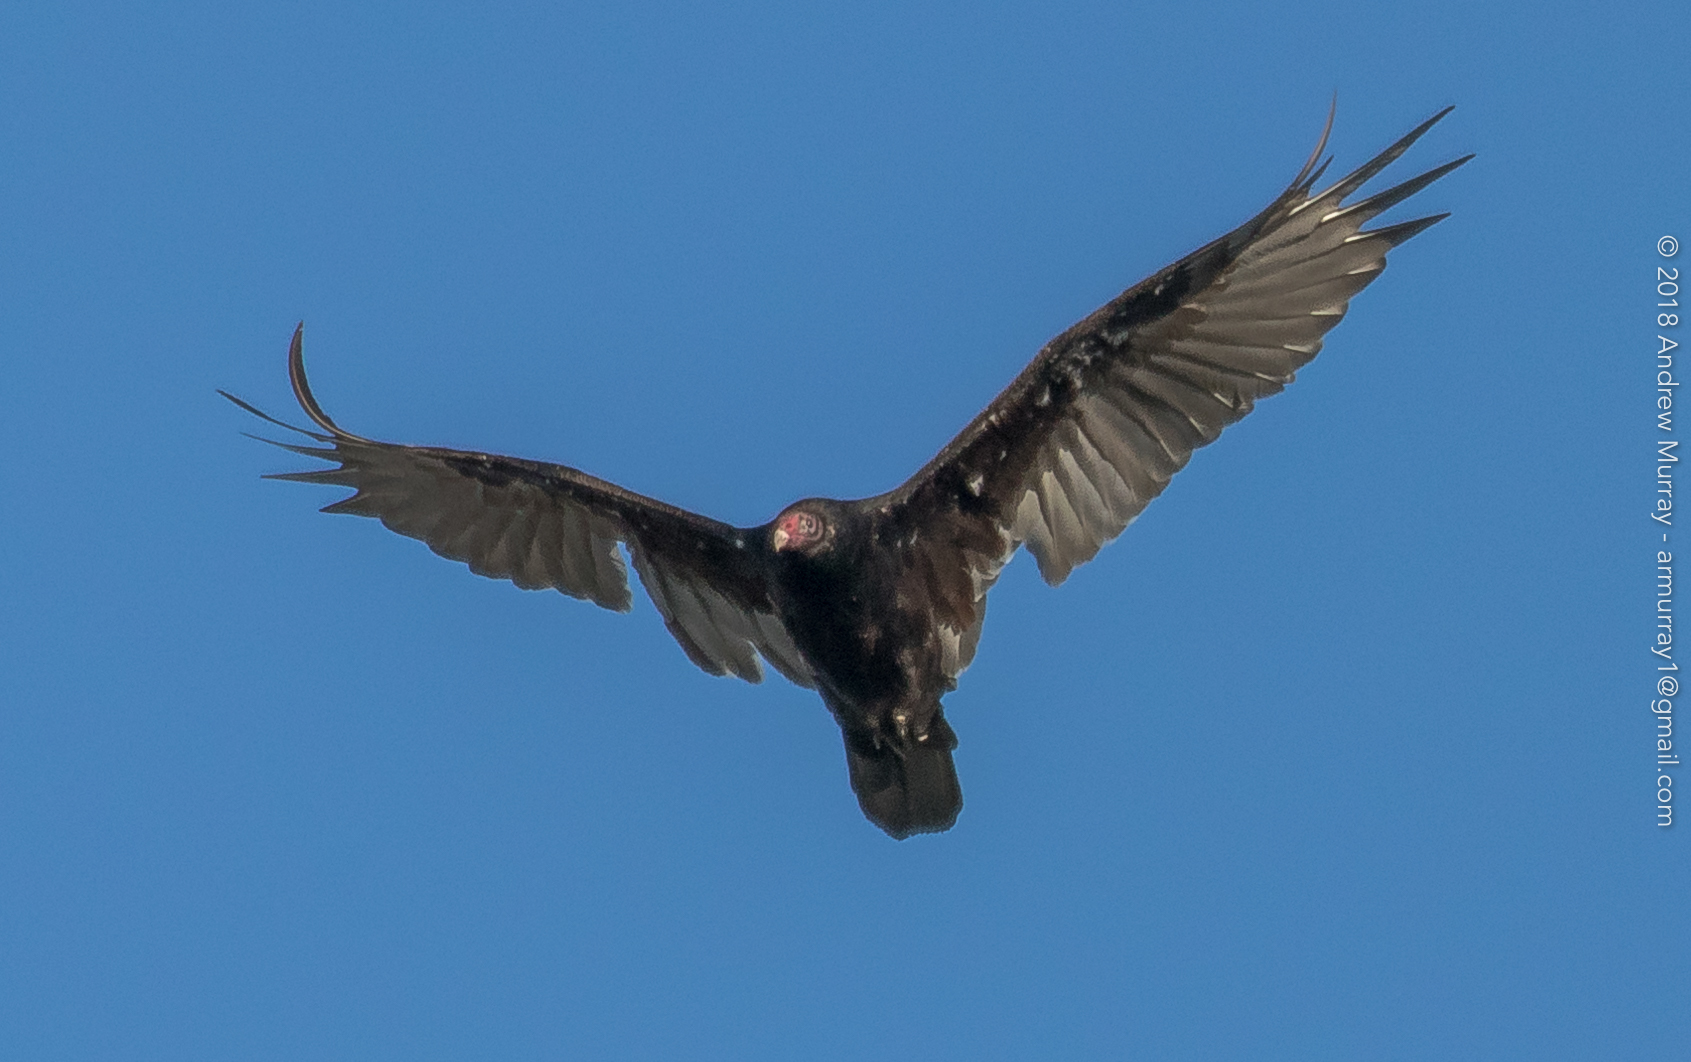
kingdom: Animalia
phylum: Chordata
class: Aves
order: Accipitriformes
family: Cathartidae
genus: Cathartes
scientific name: Cathartes aura
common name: Turkey vulture
